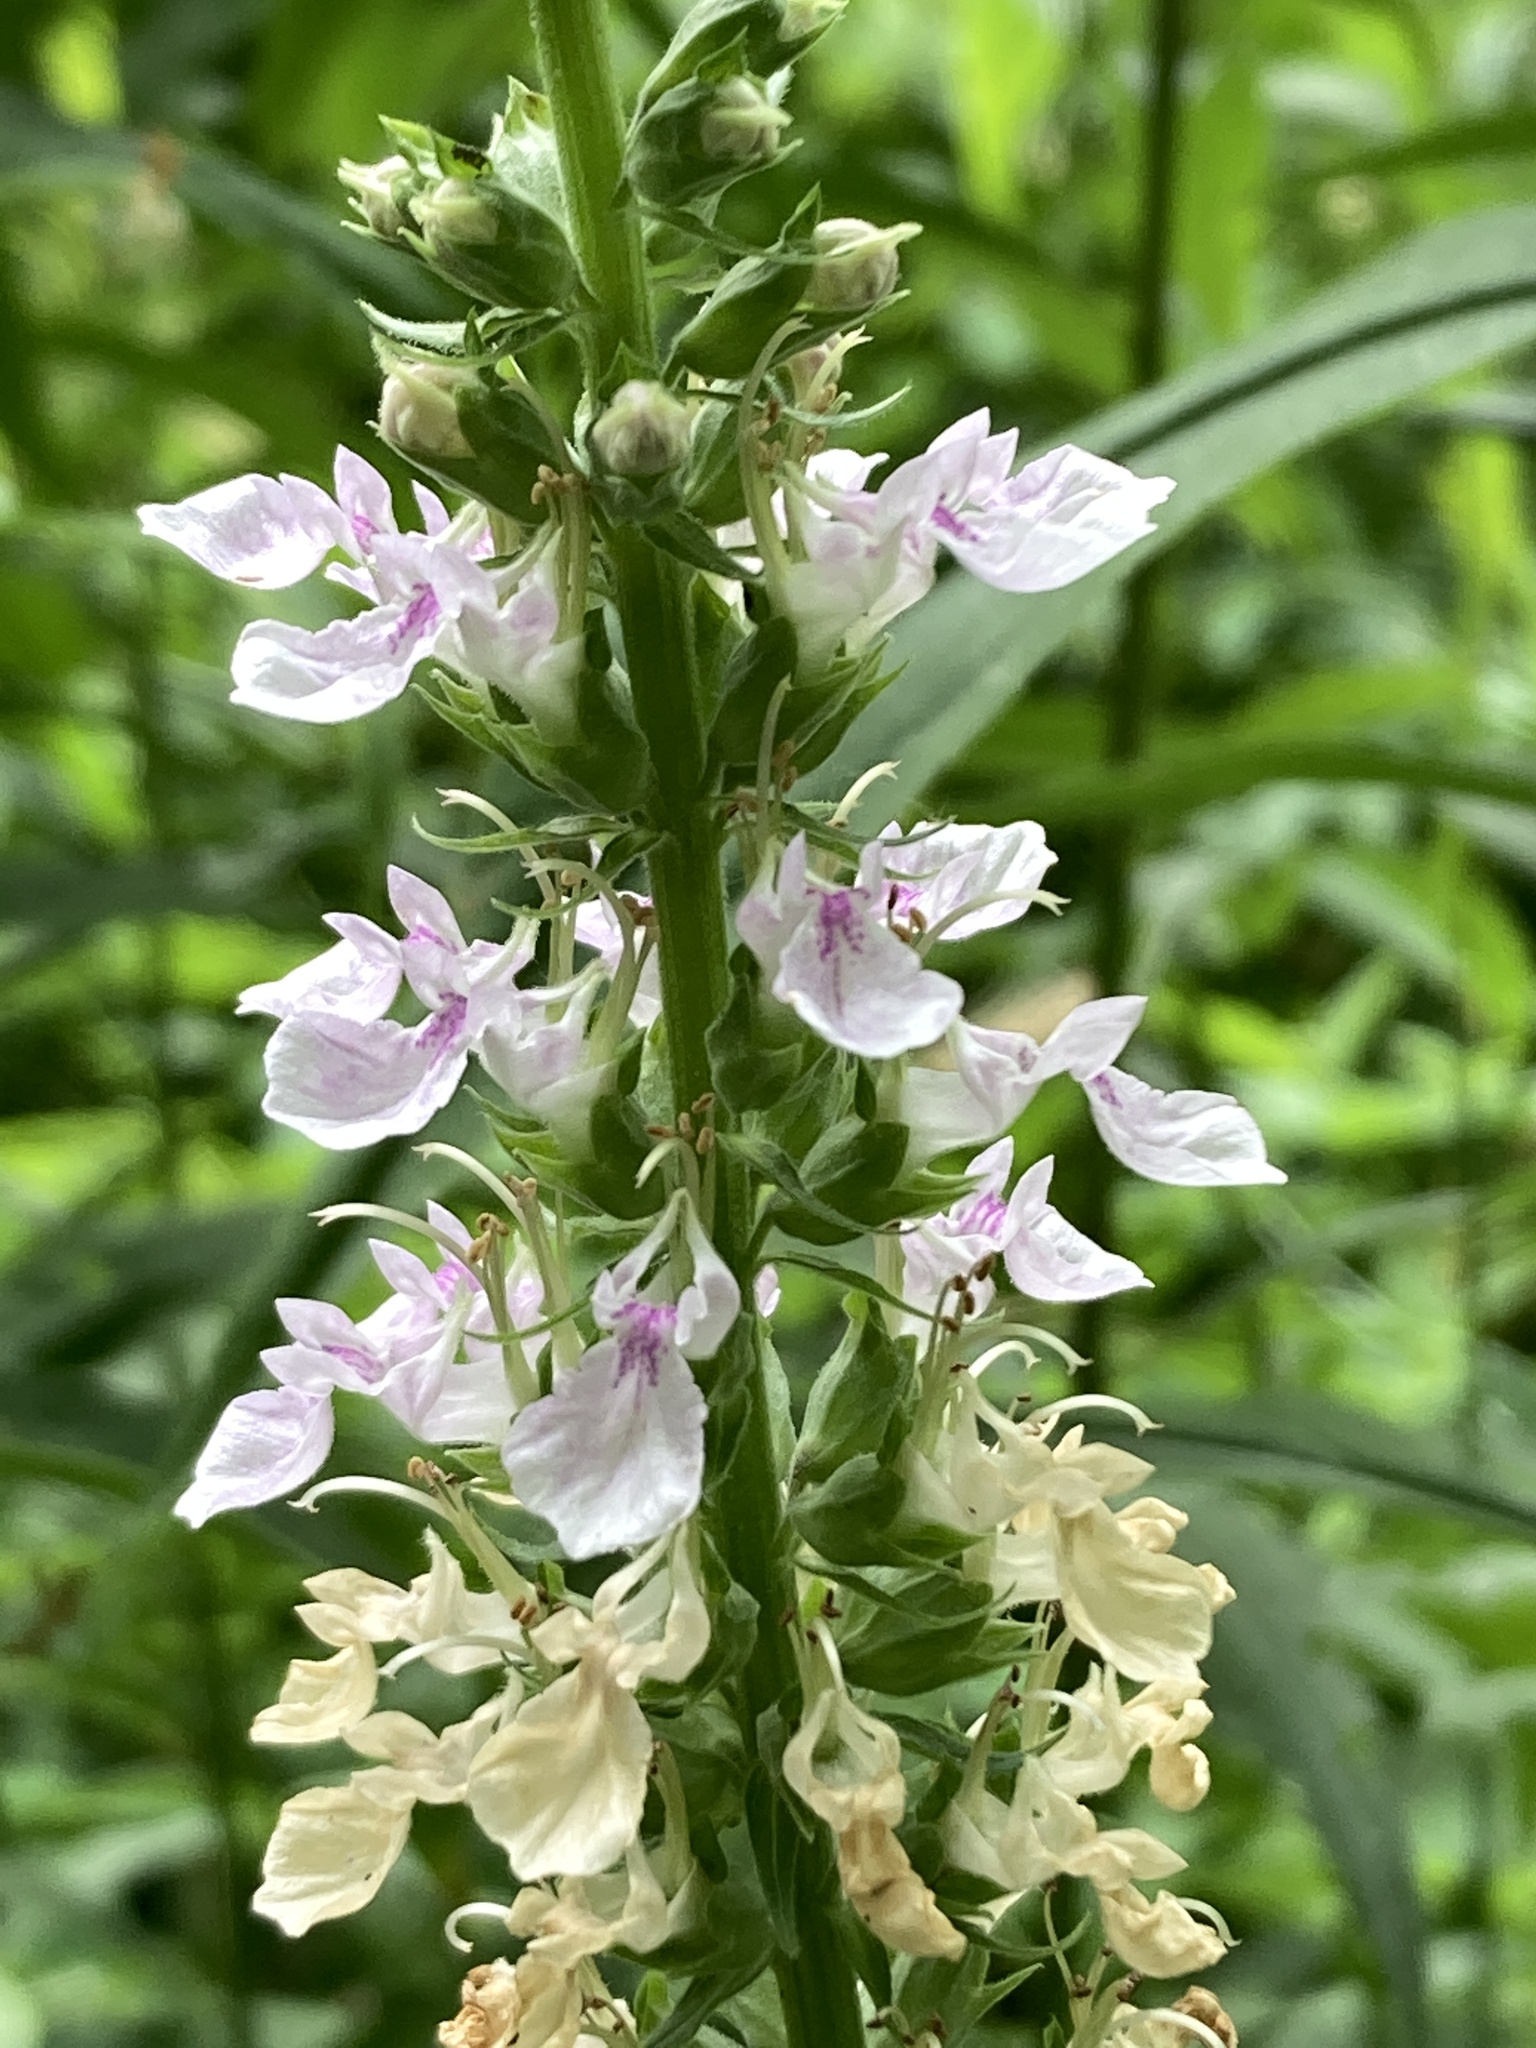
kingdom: Plantae
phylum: Tracheophyta
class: Magnoliopsida
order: Lamiales
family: Lamiaceae
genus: Teucrium
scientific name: Teucrium canadense
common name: American germander
